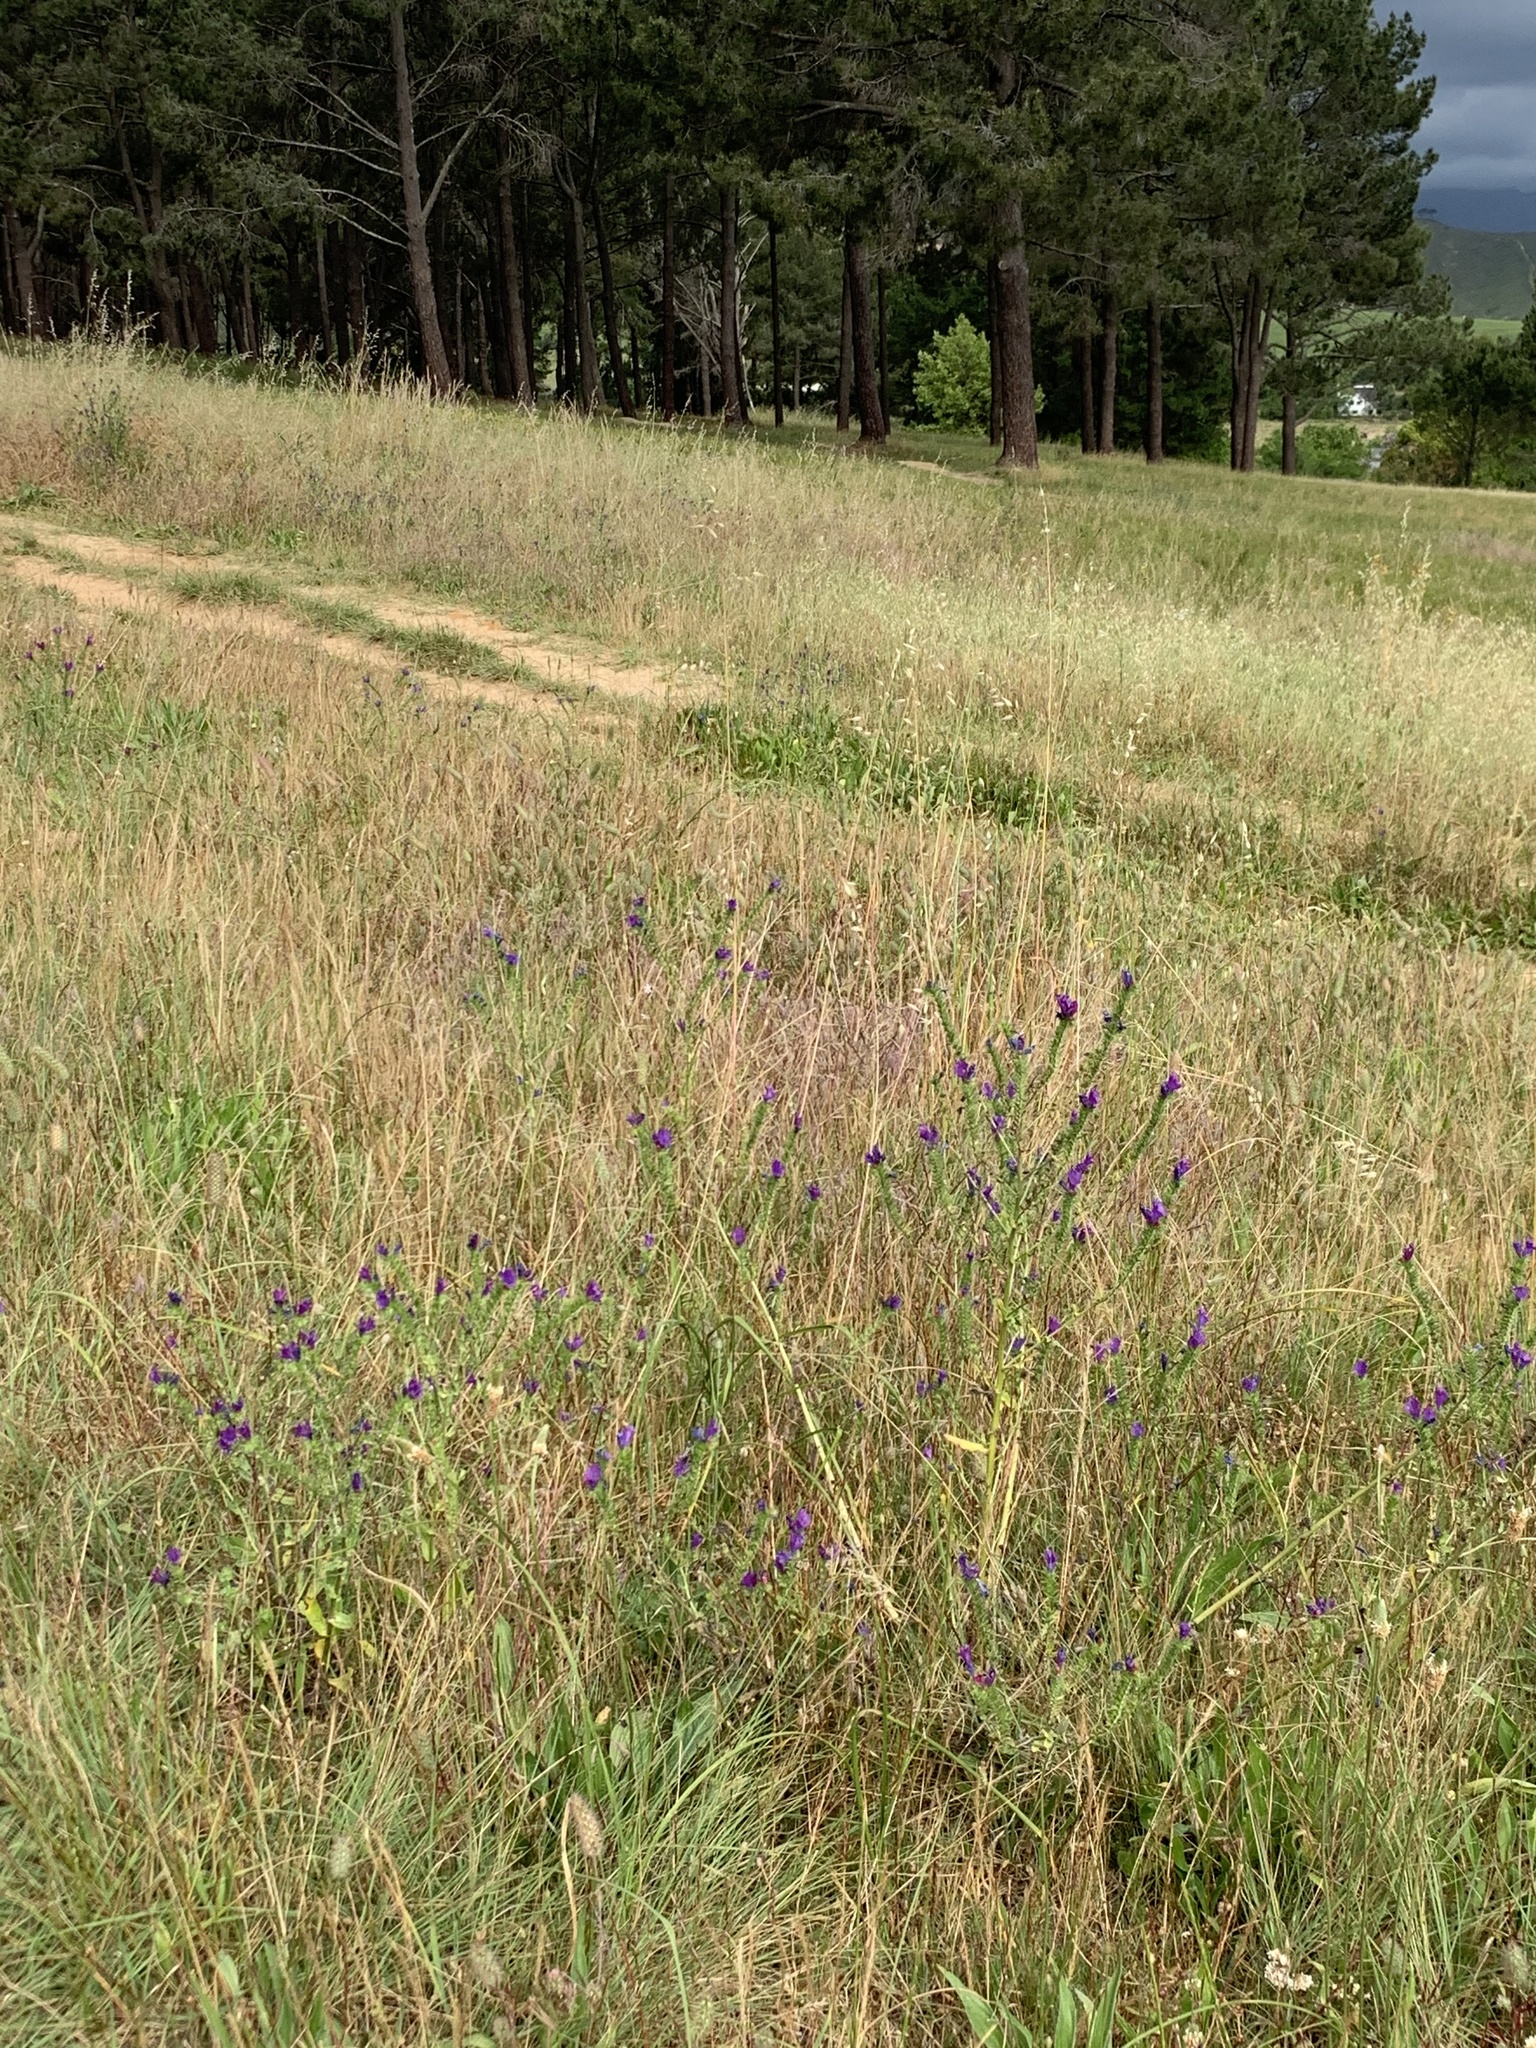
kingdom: Plantae
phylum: Tracheophyta
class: Magnoliopsida
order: Boraginales
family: Boraginaceae
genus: Echium
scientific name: Echium plantagineum
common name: Purple viper's-bugloss
